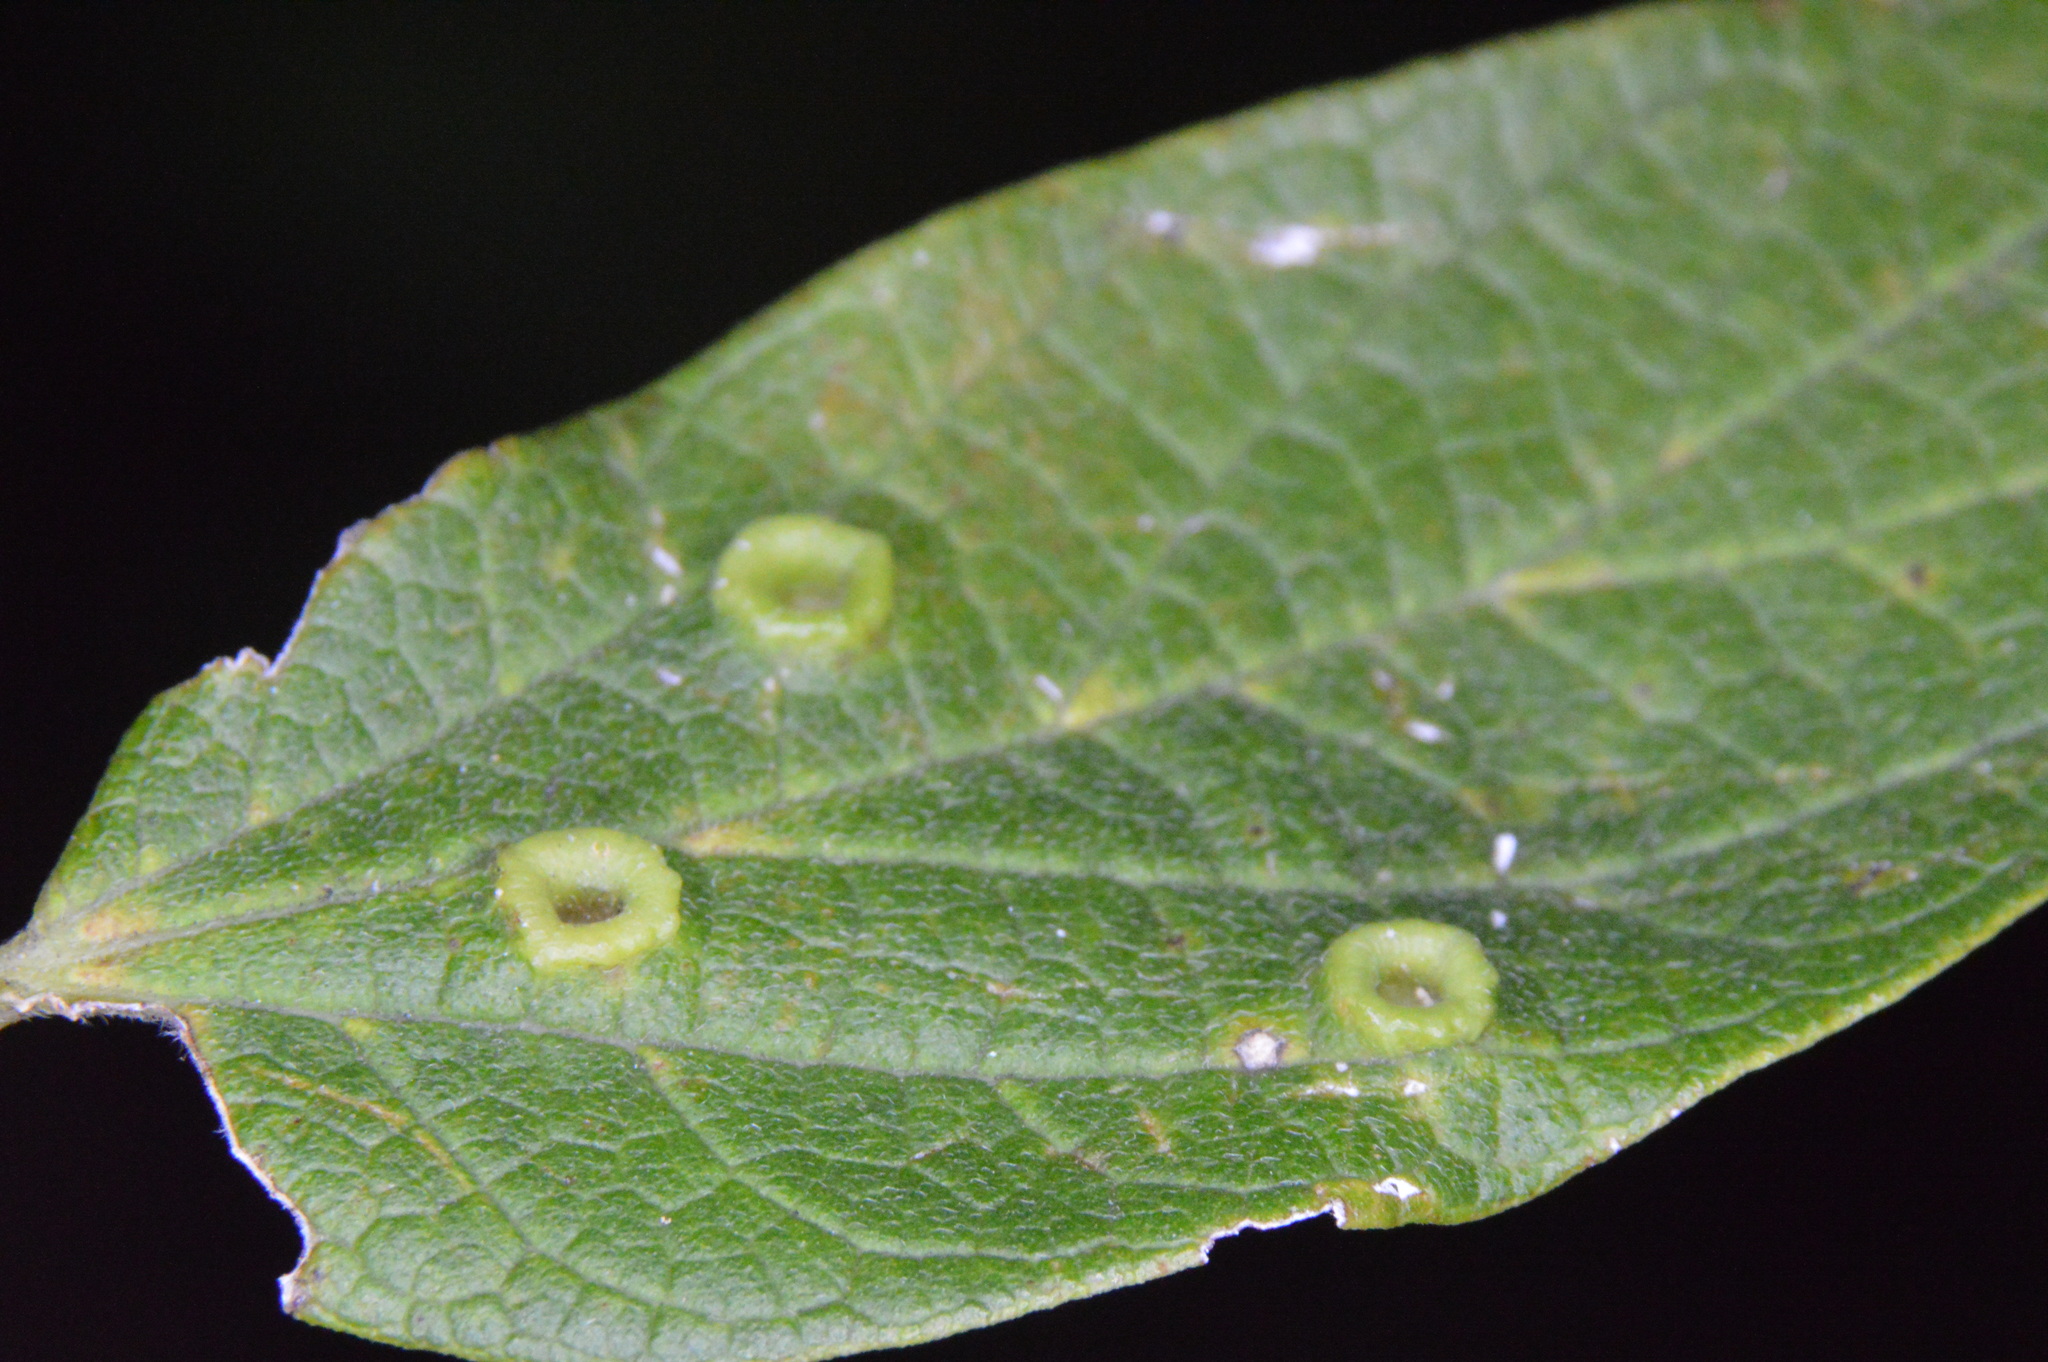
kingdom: Animalia
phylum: Arthropoda
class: Insecta
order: Hemiptera
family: Aphalaridae
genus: Pachypsylla
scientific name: Pachypsylla celtidismamma
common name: Hackberry nipplegall psyllid
